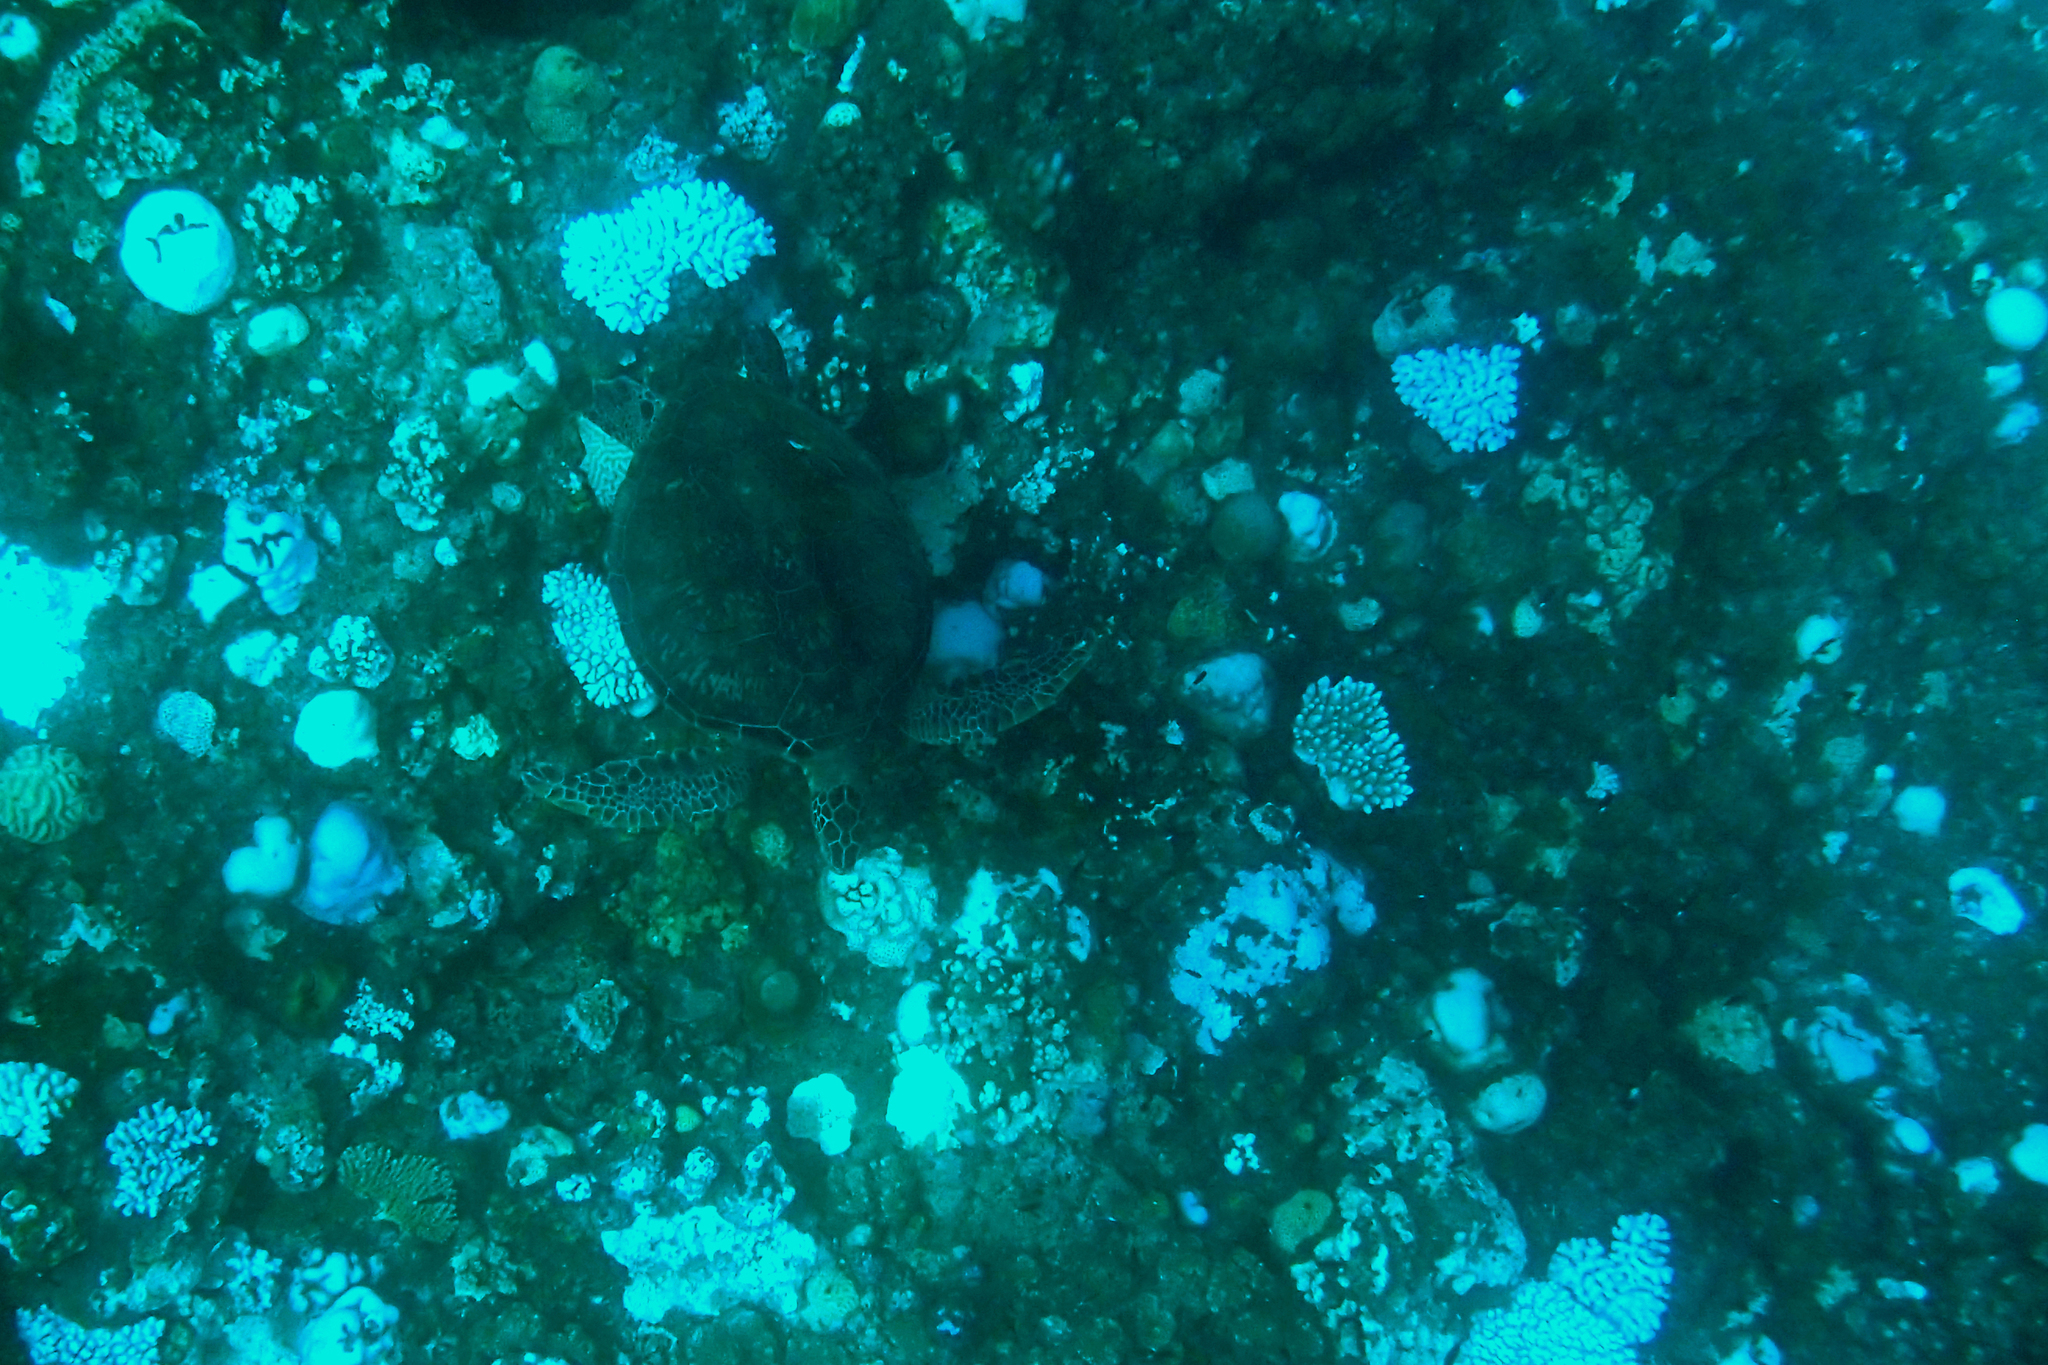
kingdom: Animalia
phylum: Chordata
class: Testudines
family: Cheloniidae
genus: Chelonia
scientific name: Chelonia mydas
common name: Green turtle
